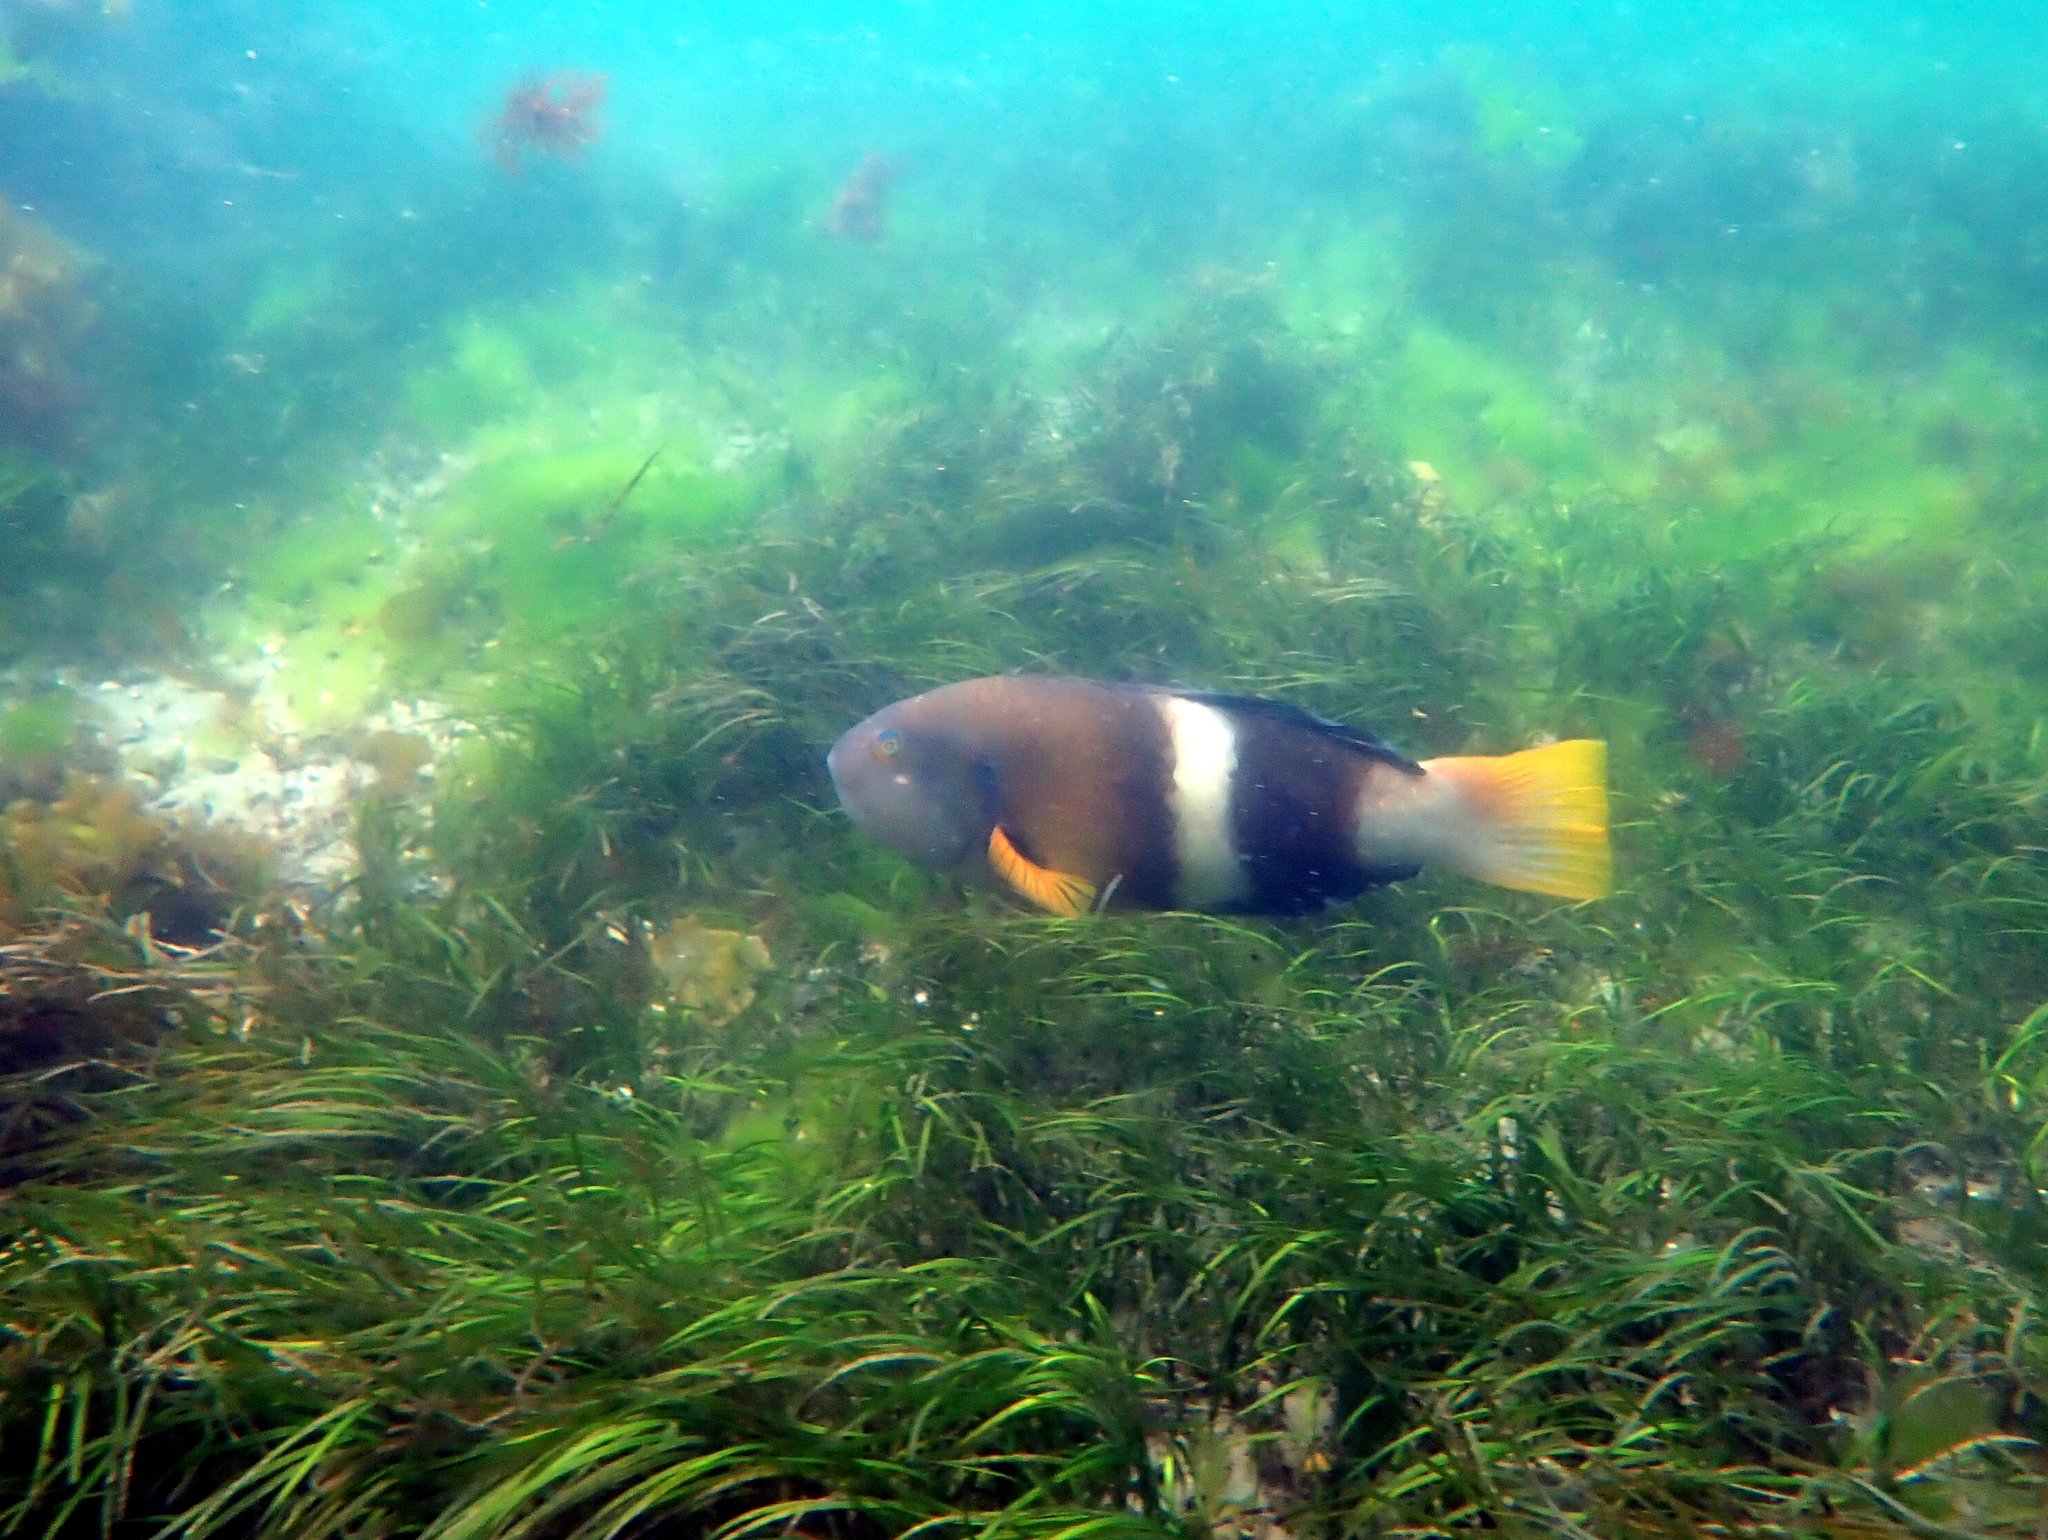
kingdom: Animalia
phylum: Chordata
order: Perciformes
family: Labridae
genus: Notolabrus
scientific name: Notolabrus tetricus
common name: Blue-throated parrotfish
